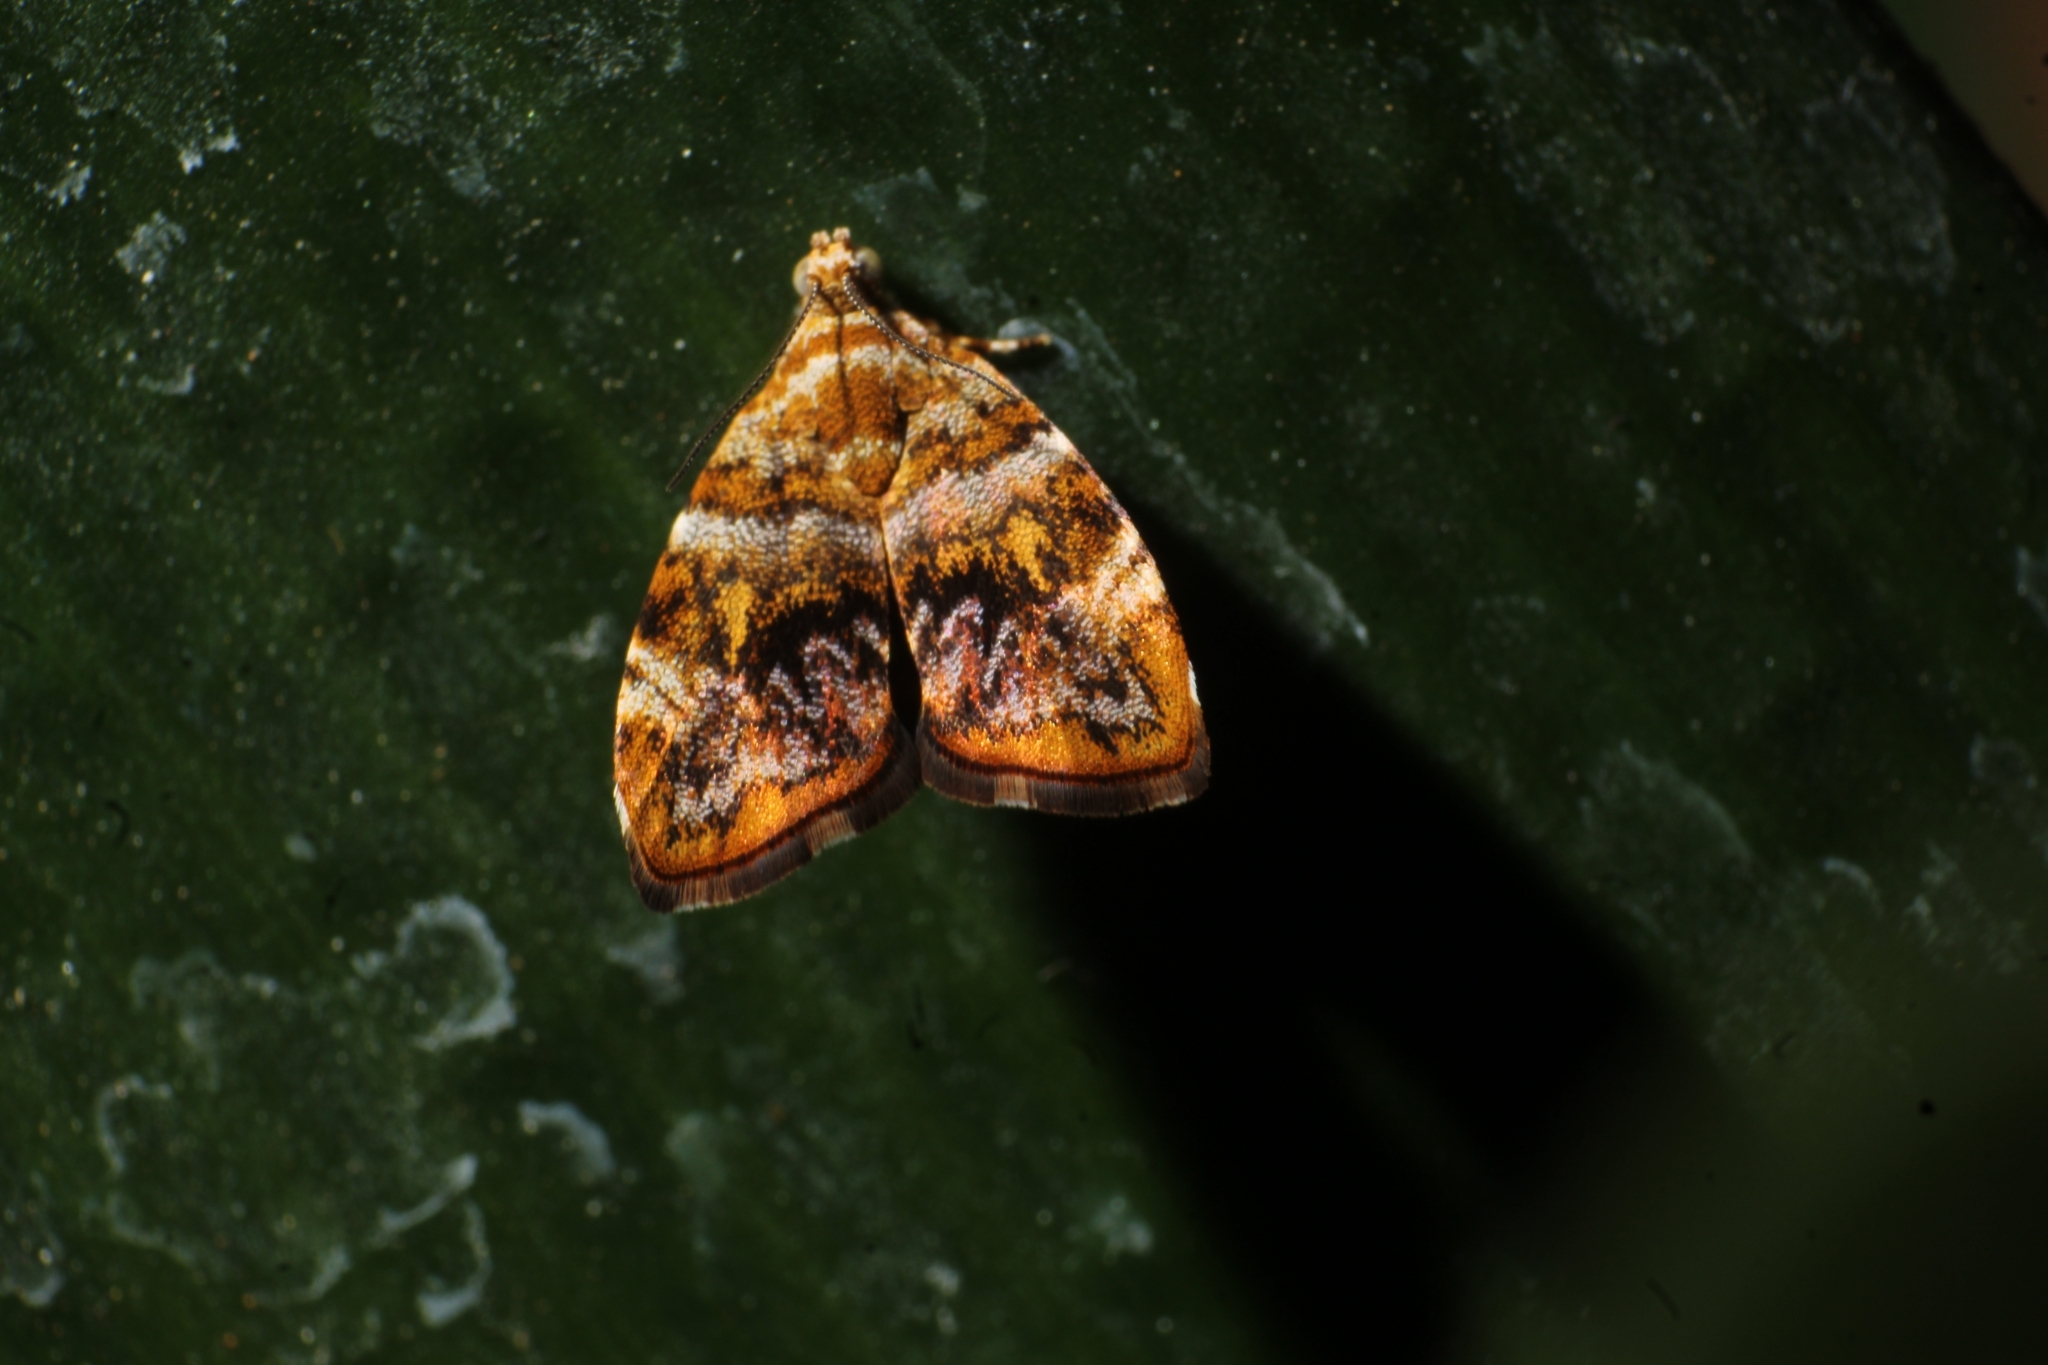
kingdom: Animalia
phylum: Arthropoda
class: Insecta
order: Lepidoptera
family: Choreutidae
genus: Choreutis
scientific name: Choreutis ophiosema
